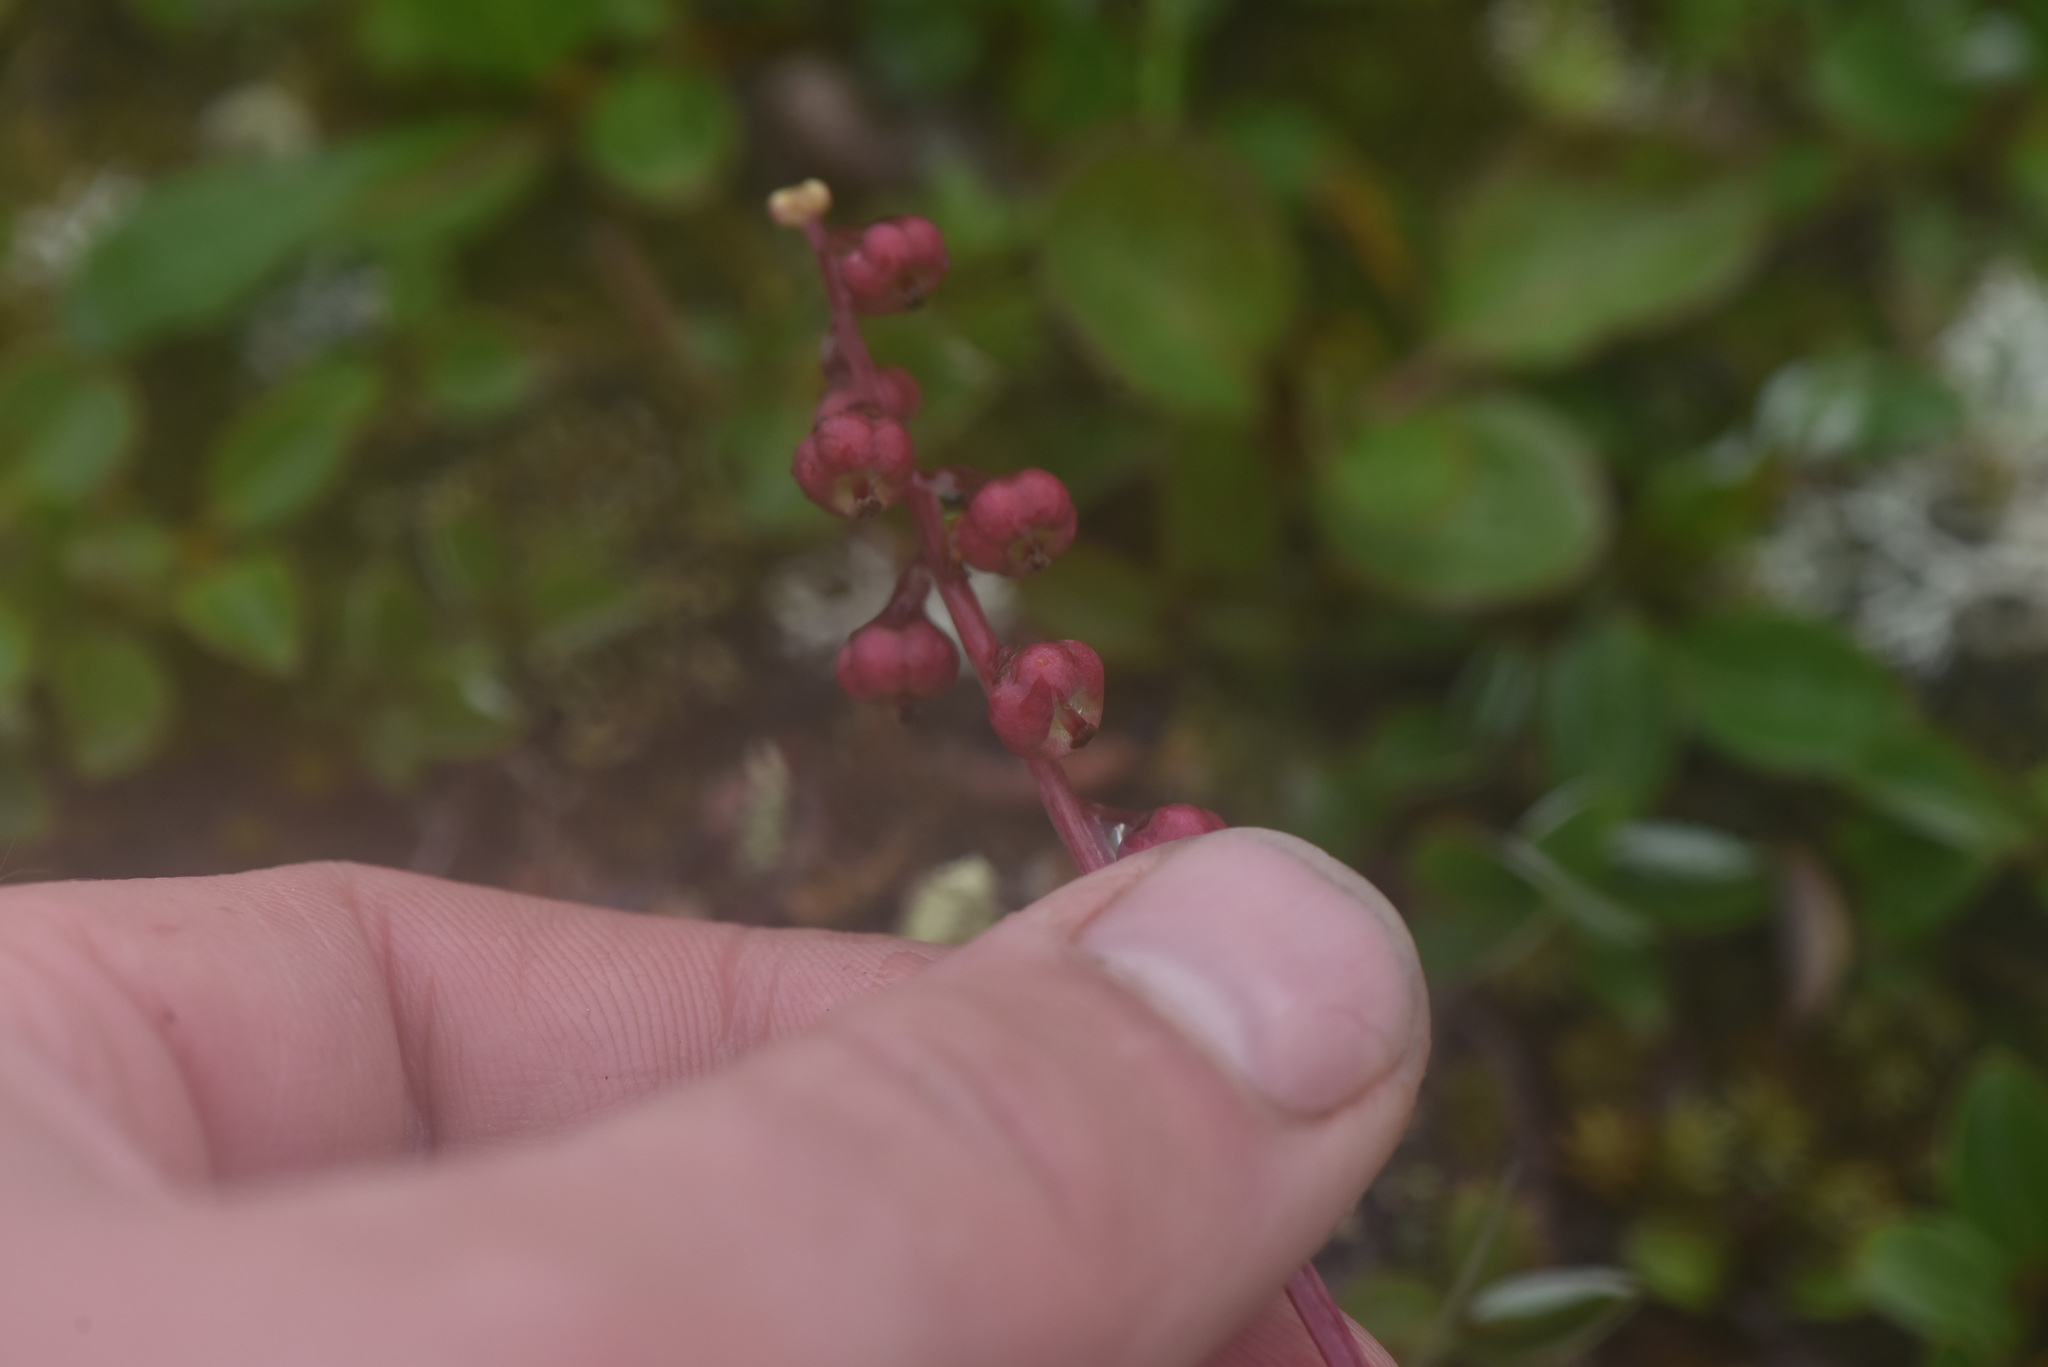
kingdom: Plantae
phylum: Tracheophyta
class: Magnoliopsida
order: Ericales
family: Ericaceae
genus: Pyrola
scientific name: Pyrola minor
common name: Common wintergreen
